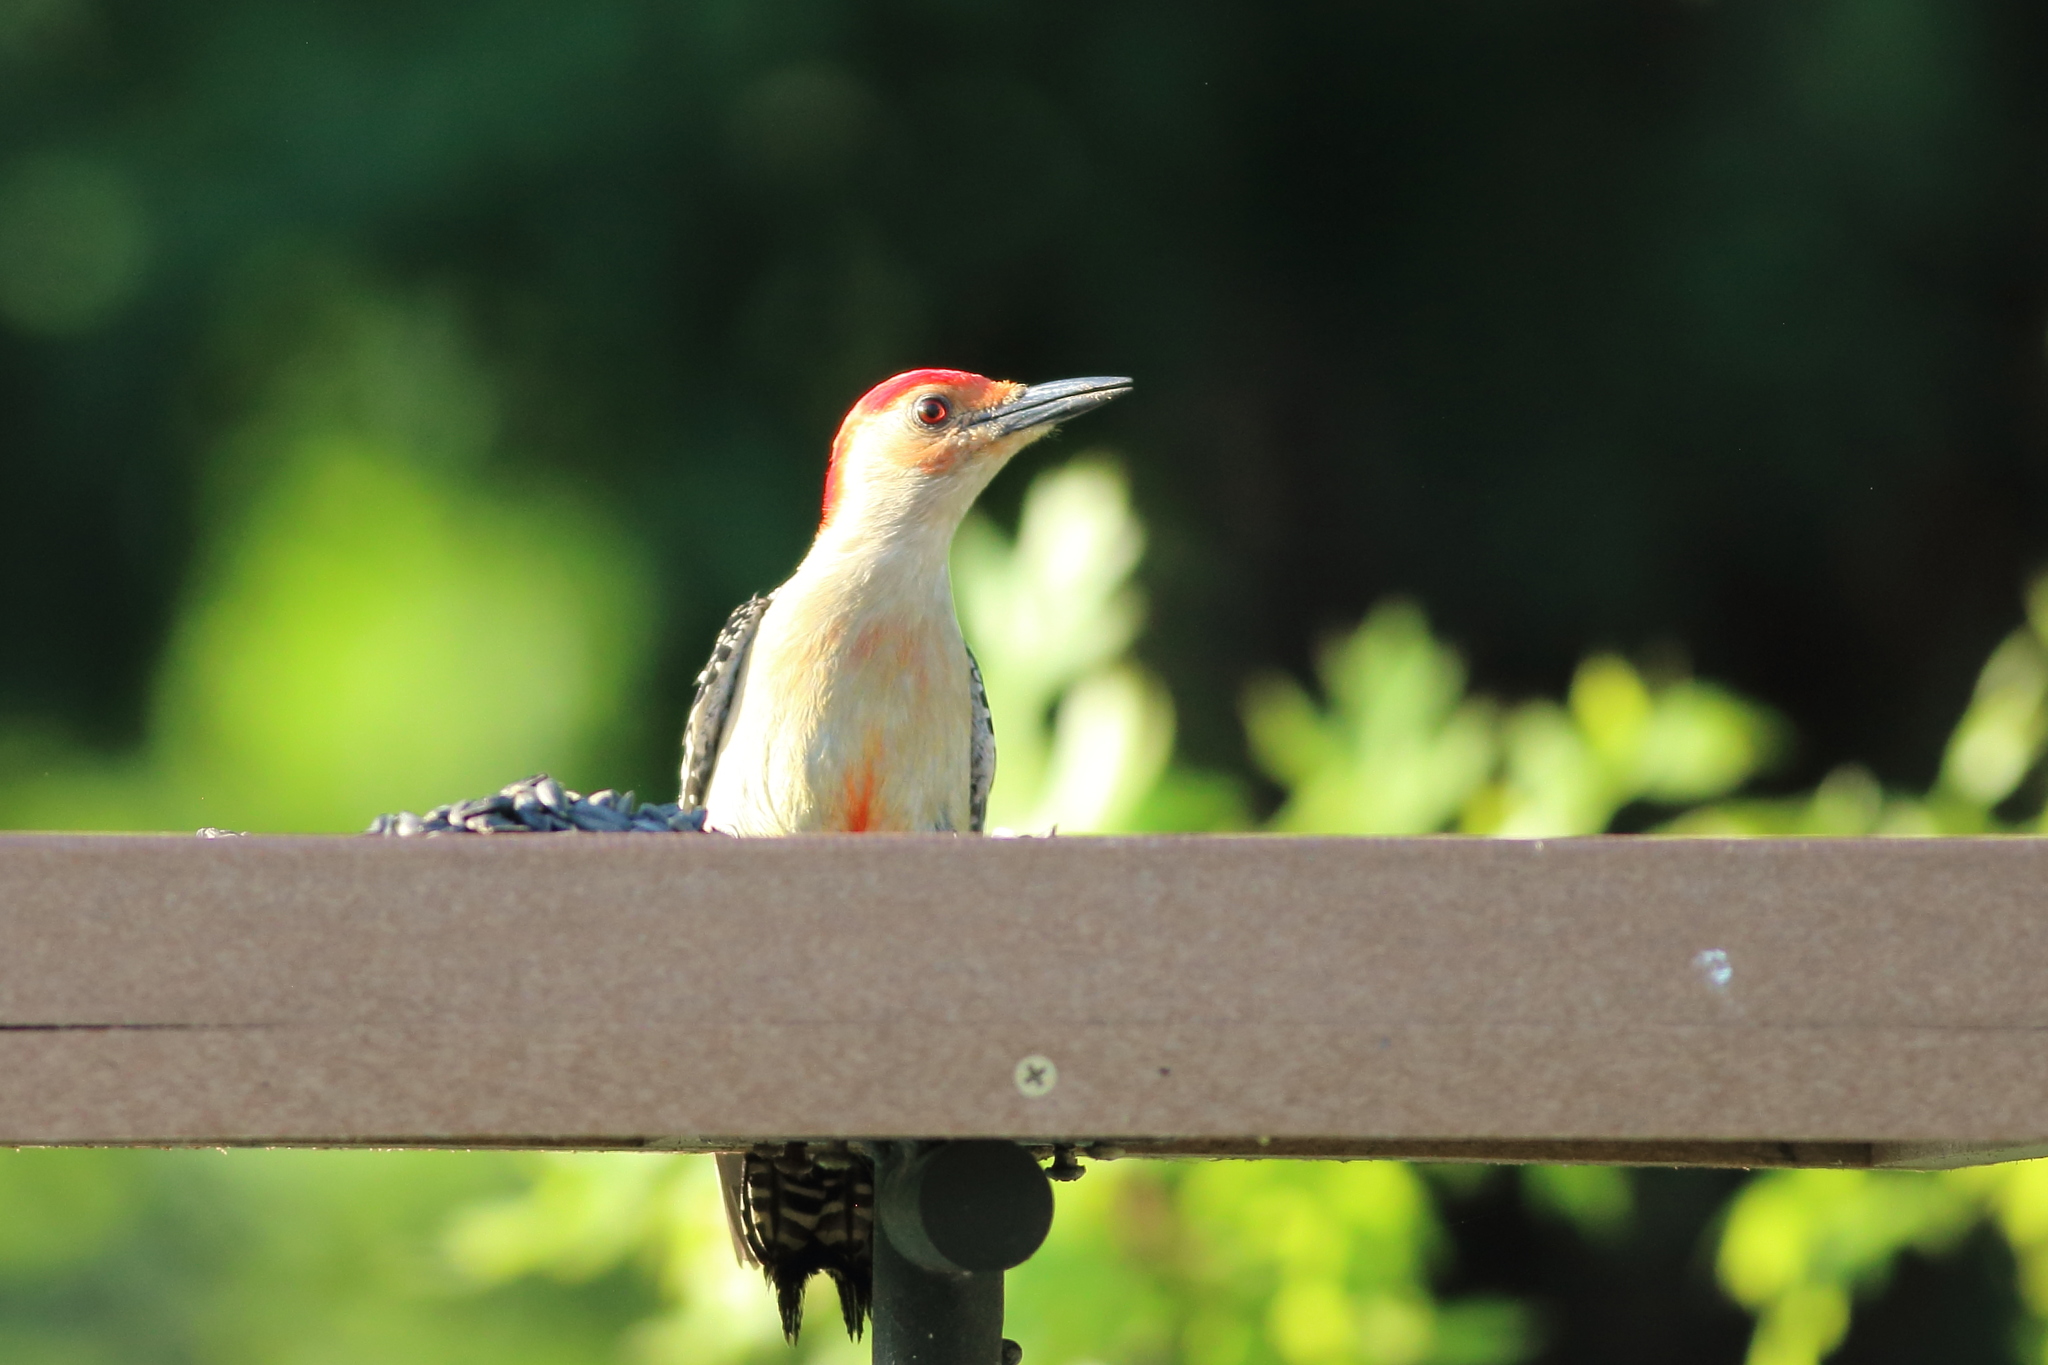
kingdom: Animalia
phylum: Chordata
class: Aves
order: Piciformes
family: Picidae
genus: Melanerpes
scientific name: Melanerpes carolinus
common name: Red-bellied woodpecker
